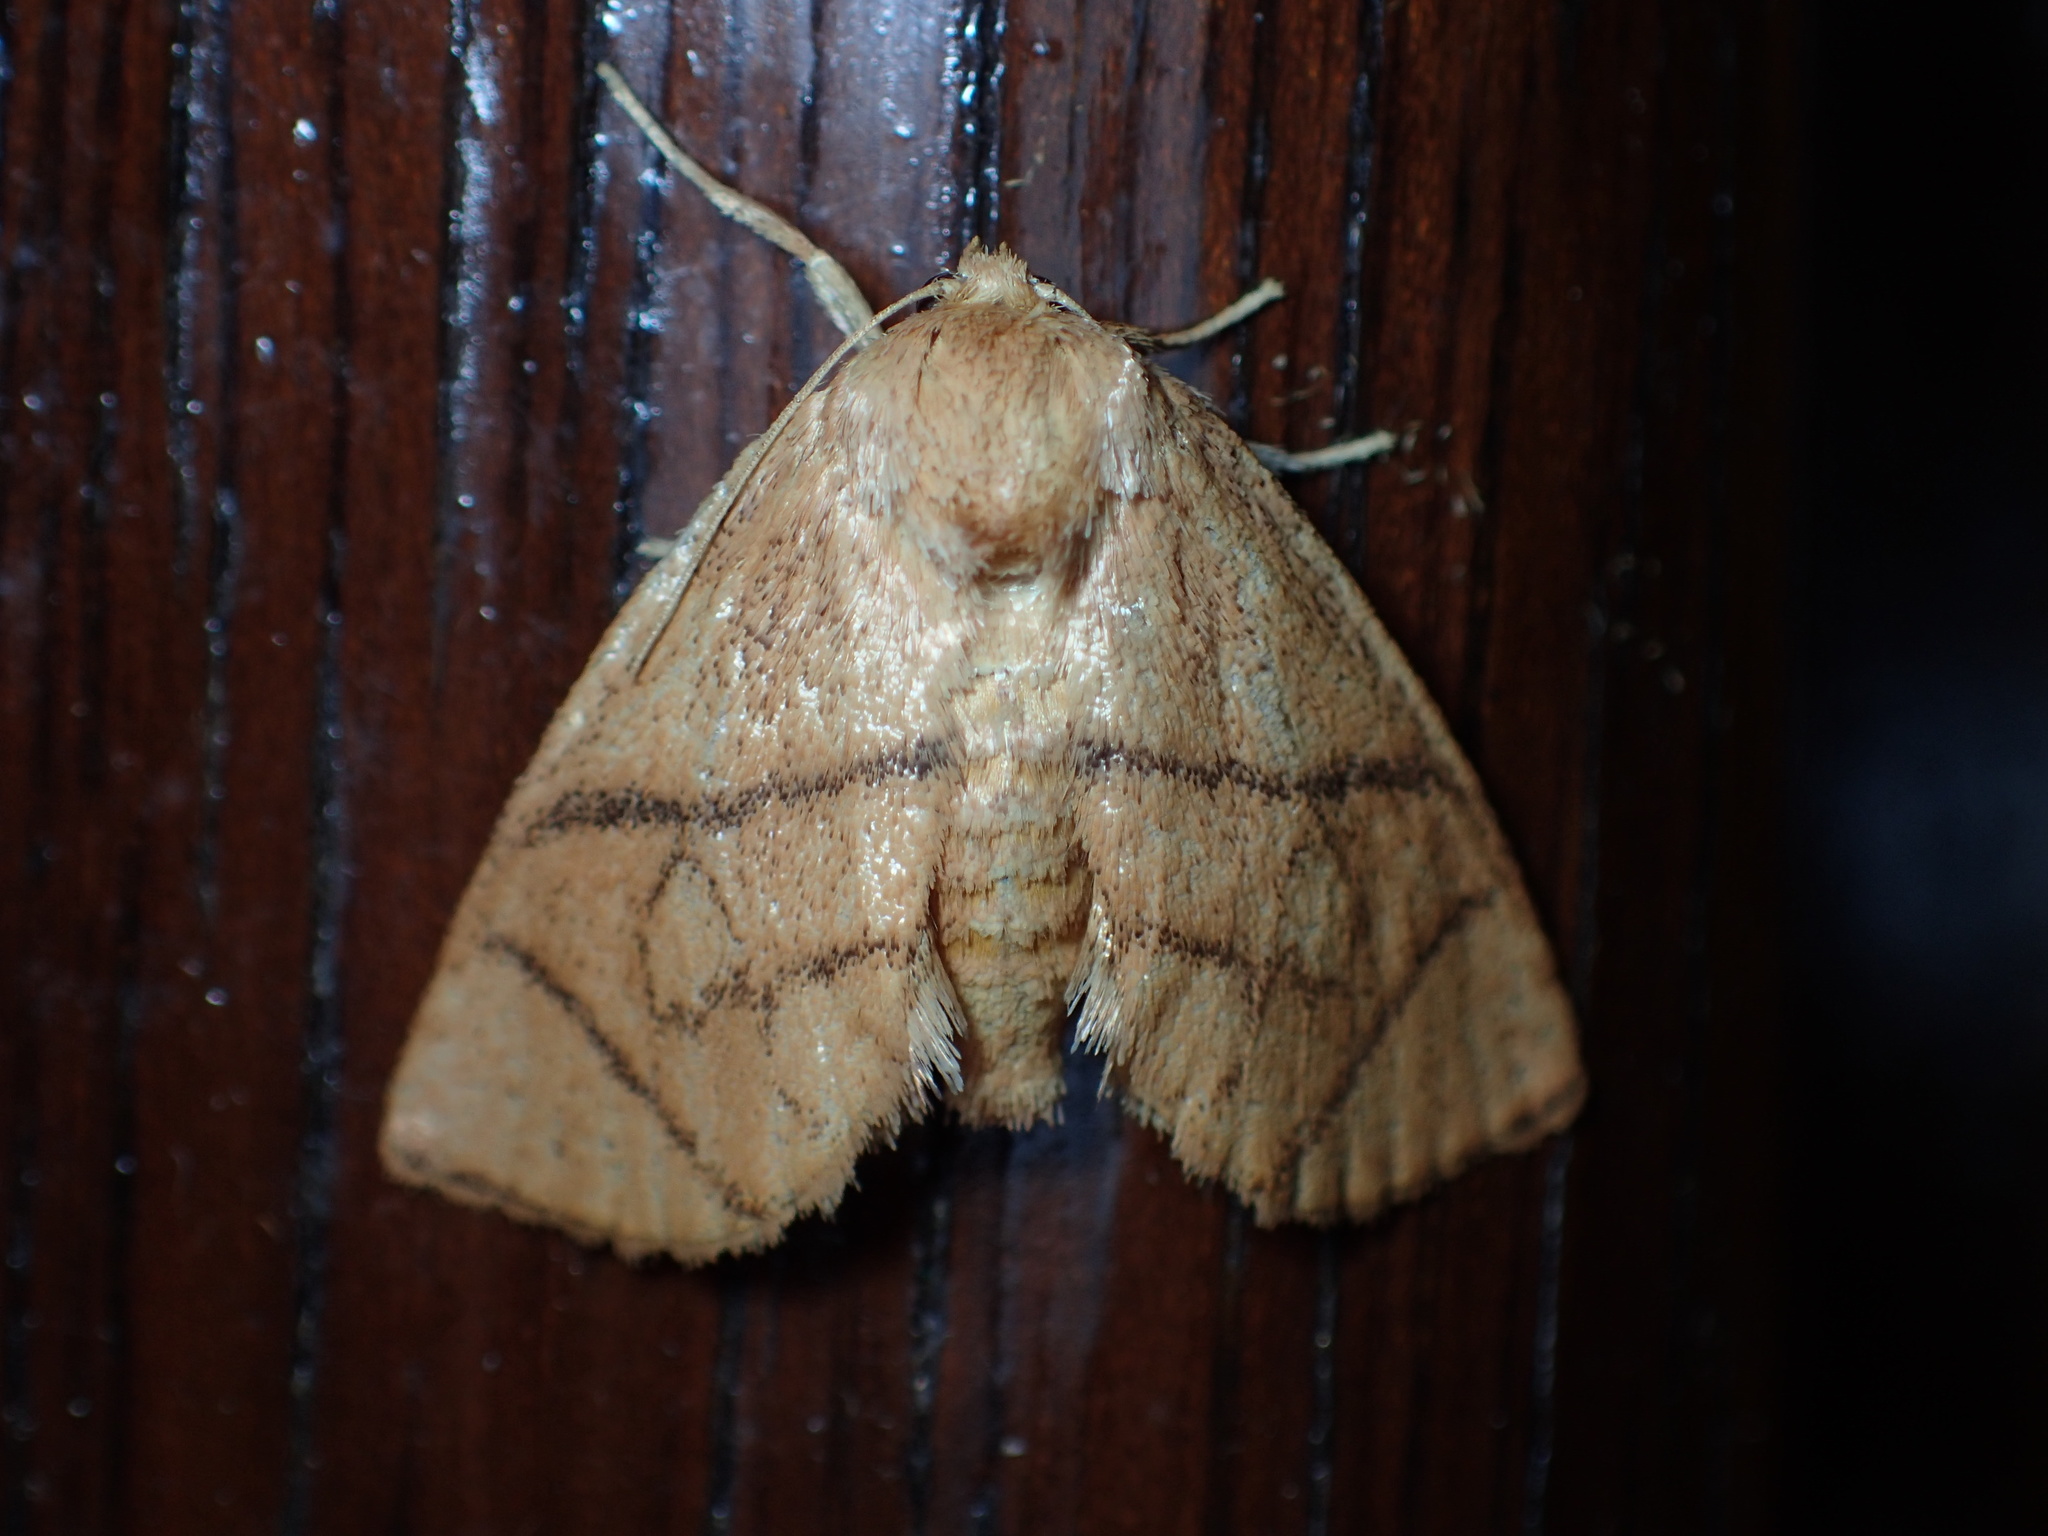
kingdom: Animalia
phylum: Arthropoda
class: Insecta
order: Lepidoptera
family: Limacodidae
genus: Apoda
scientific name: Apoda y-inversa
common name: Yellow-collared slug moth
